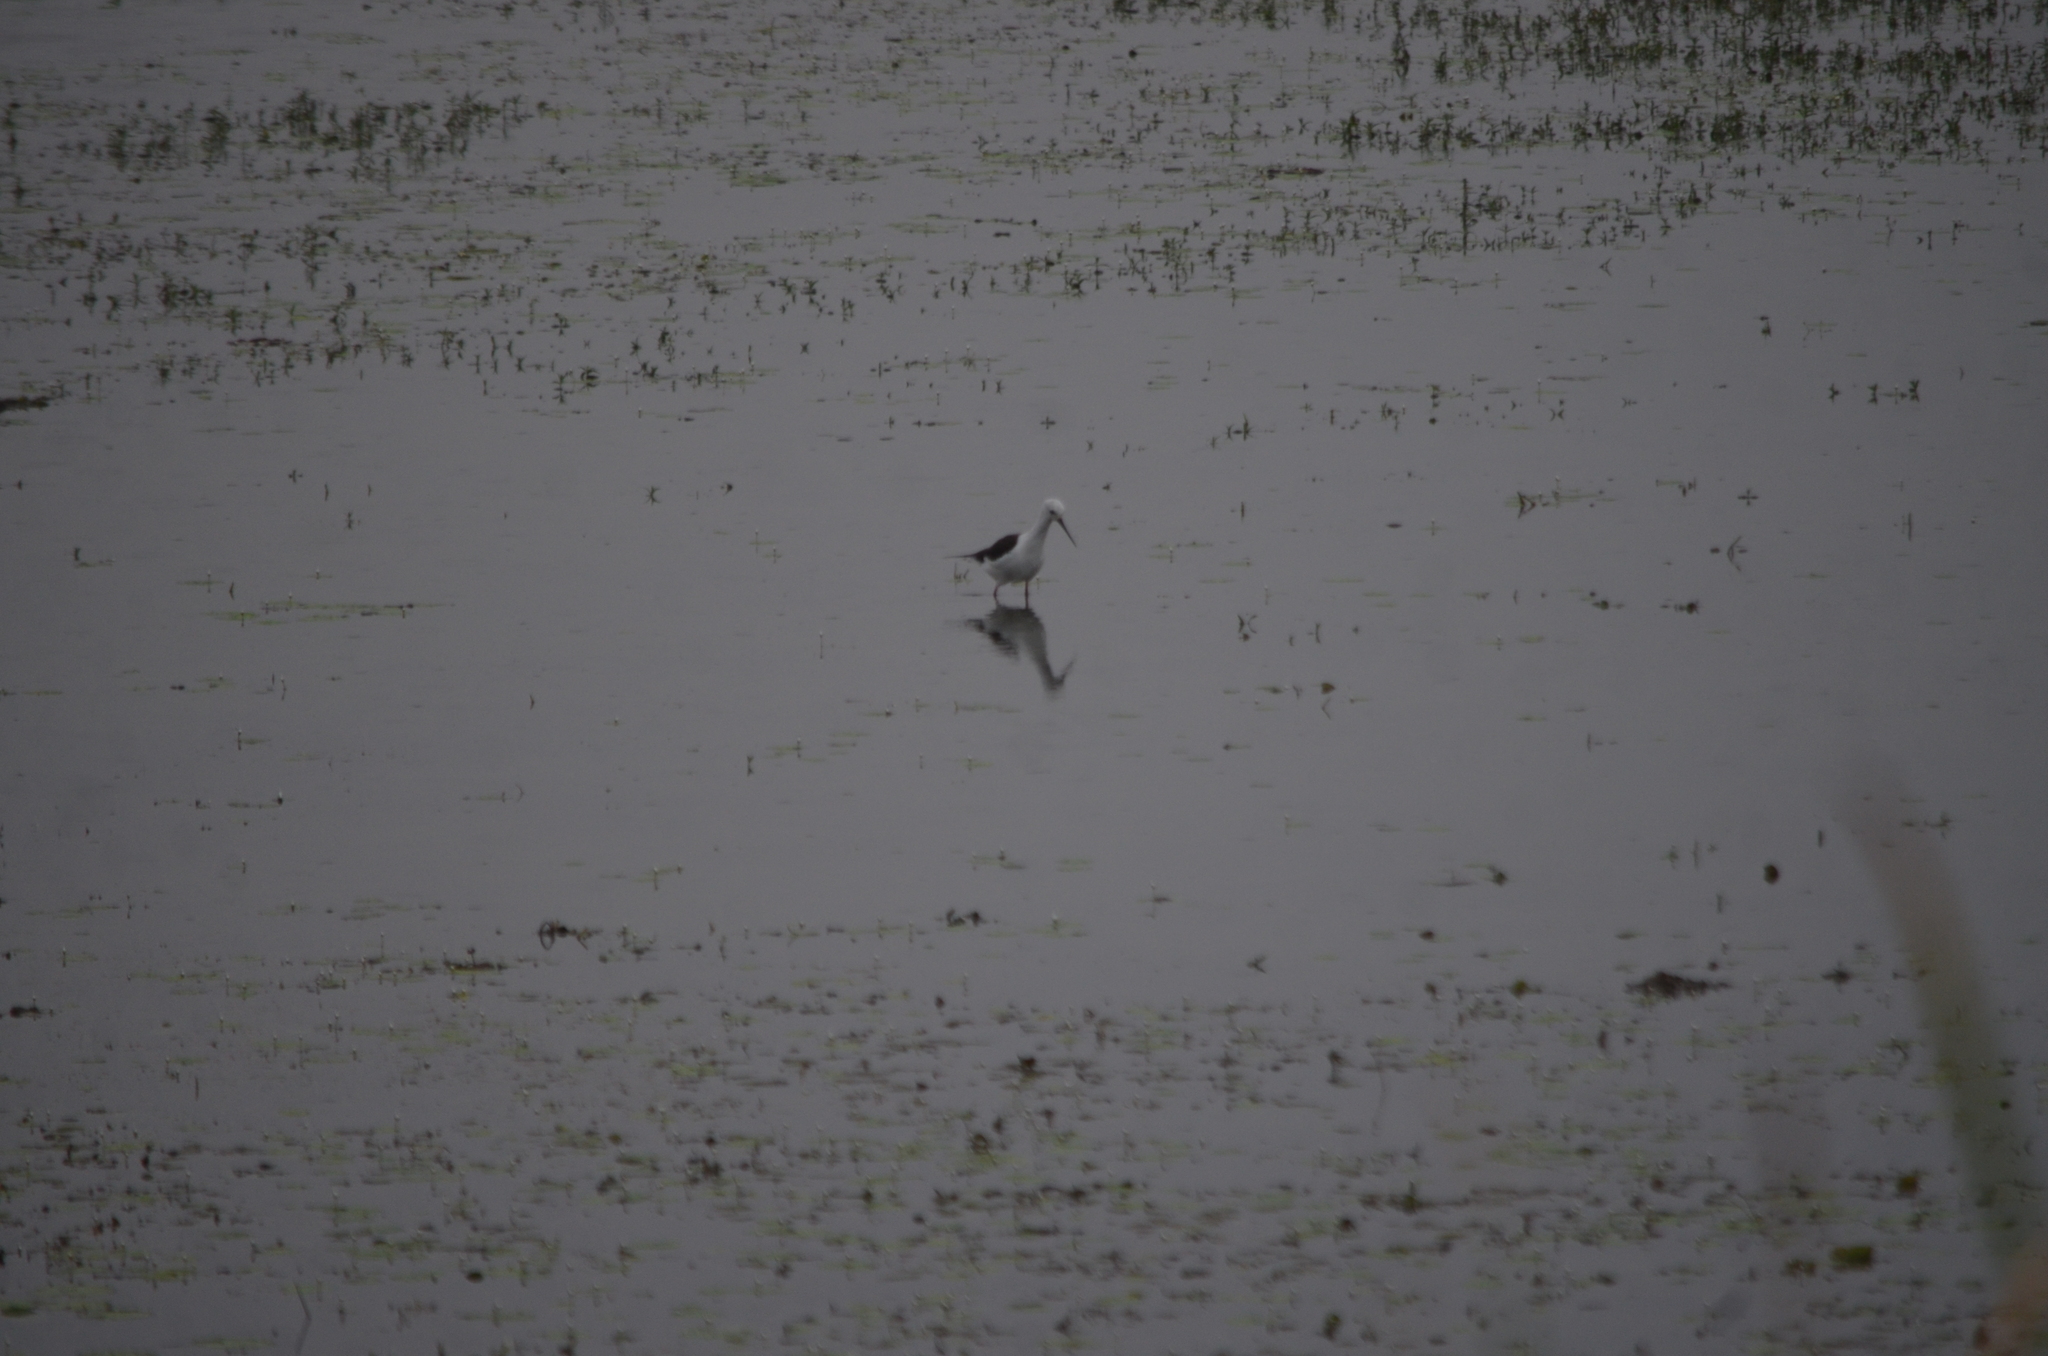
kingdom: Animalia
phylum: Chordata
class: Aves
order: Charadriiformes
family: Recurvirostridae
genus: Himantopus
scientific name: Himantopus himantopus
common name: Black-winged stilt
